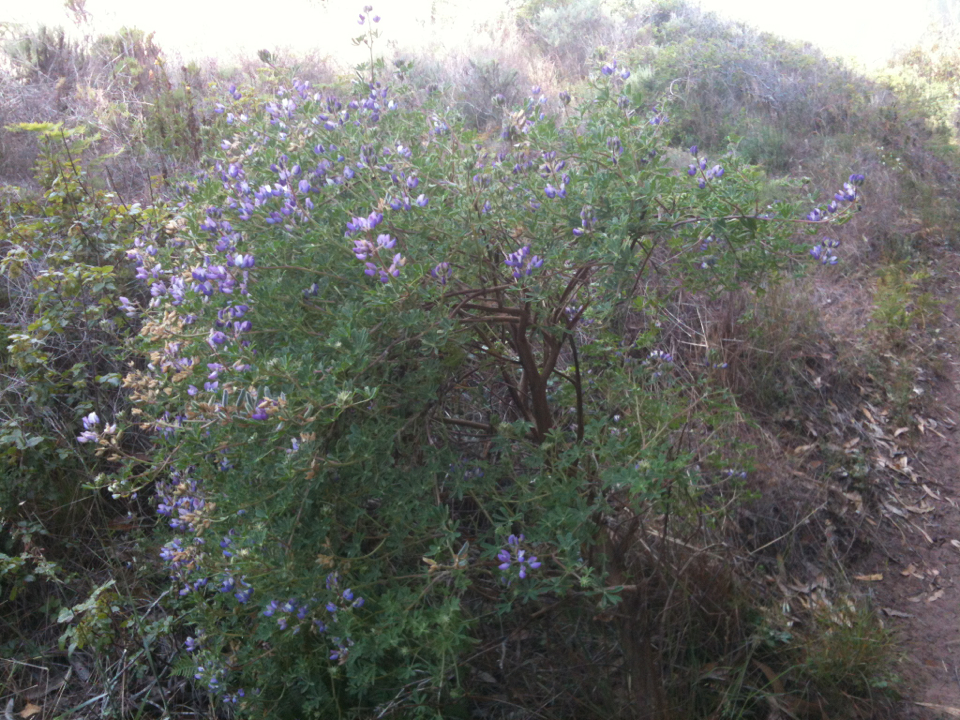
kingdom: Plantae
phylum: Tracheophyta
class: Magnoliopsida
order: Fabales
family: Fabaceae
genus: Lupinus
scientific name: Lupinus albifrons
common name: Foothill lupine
